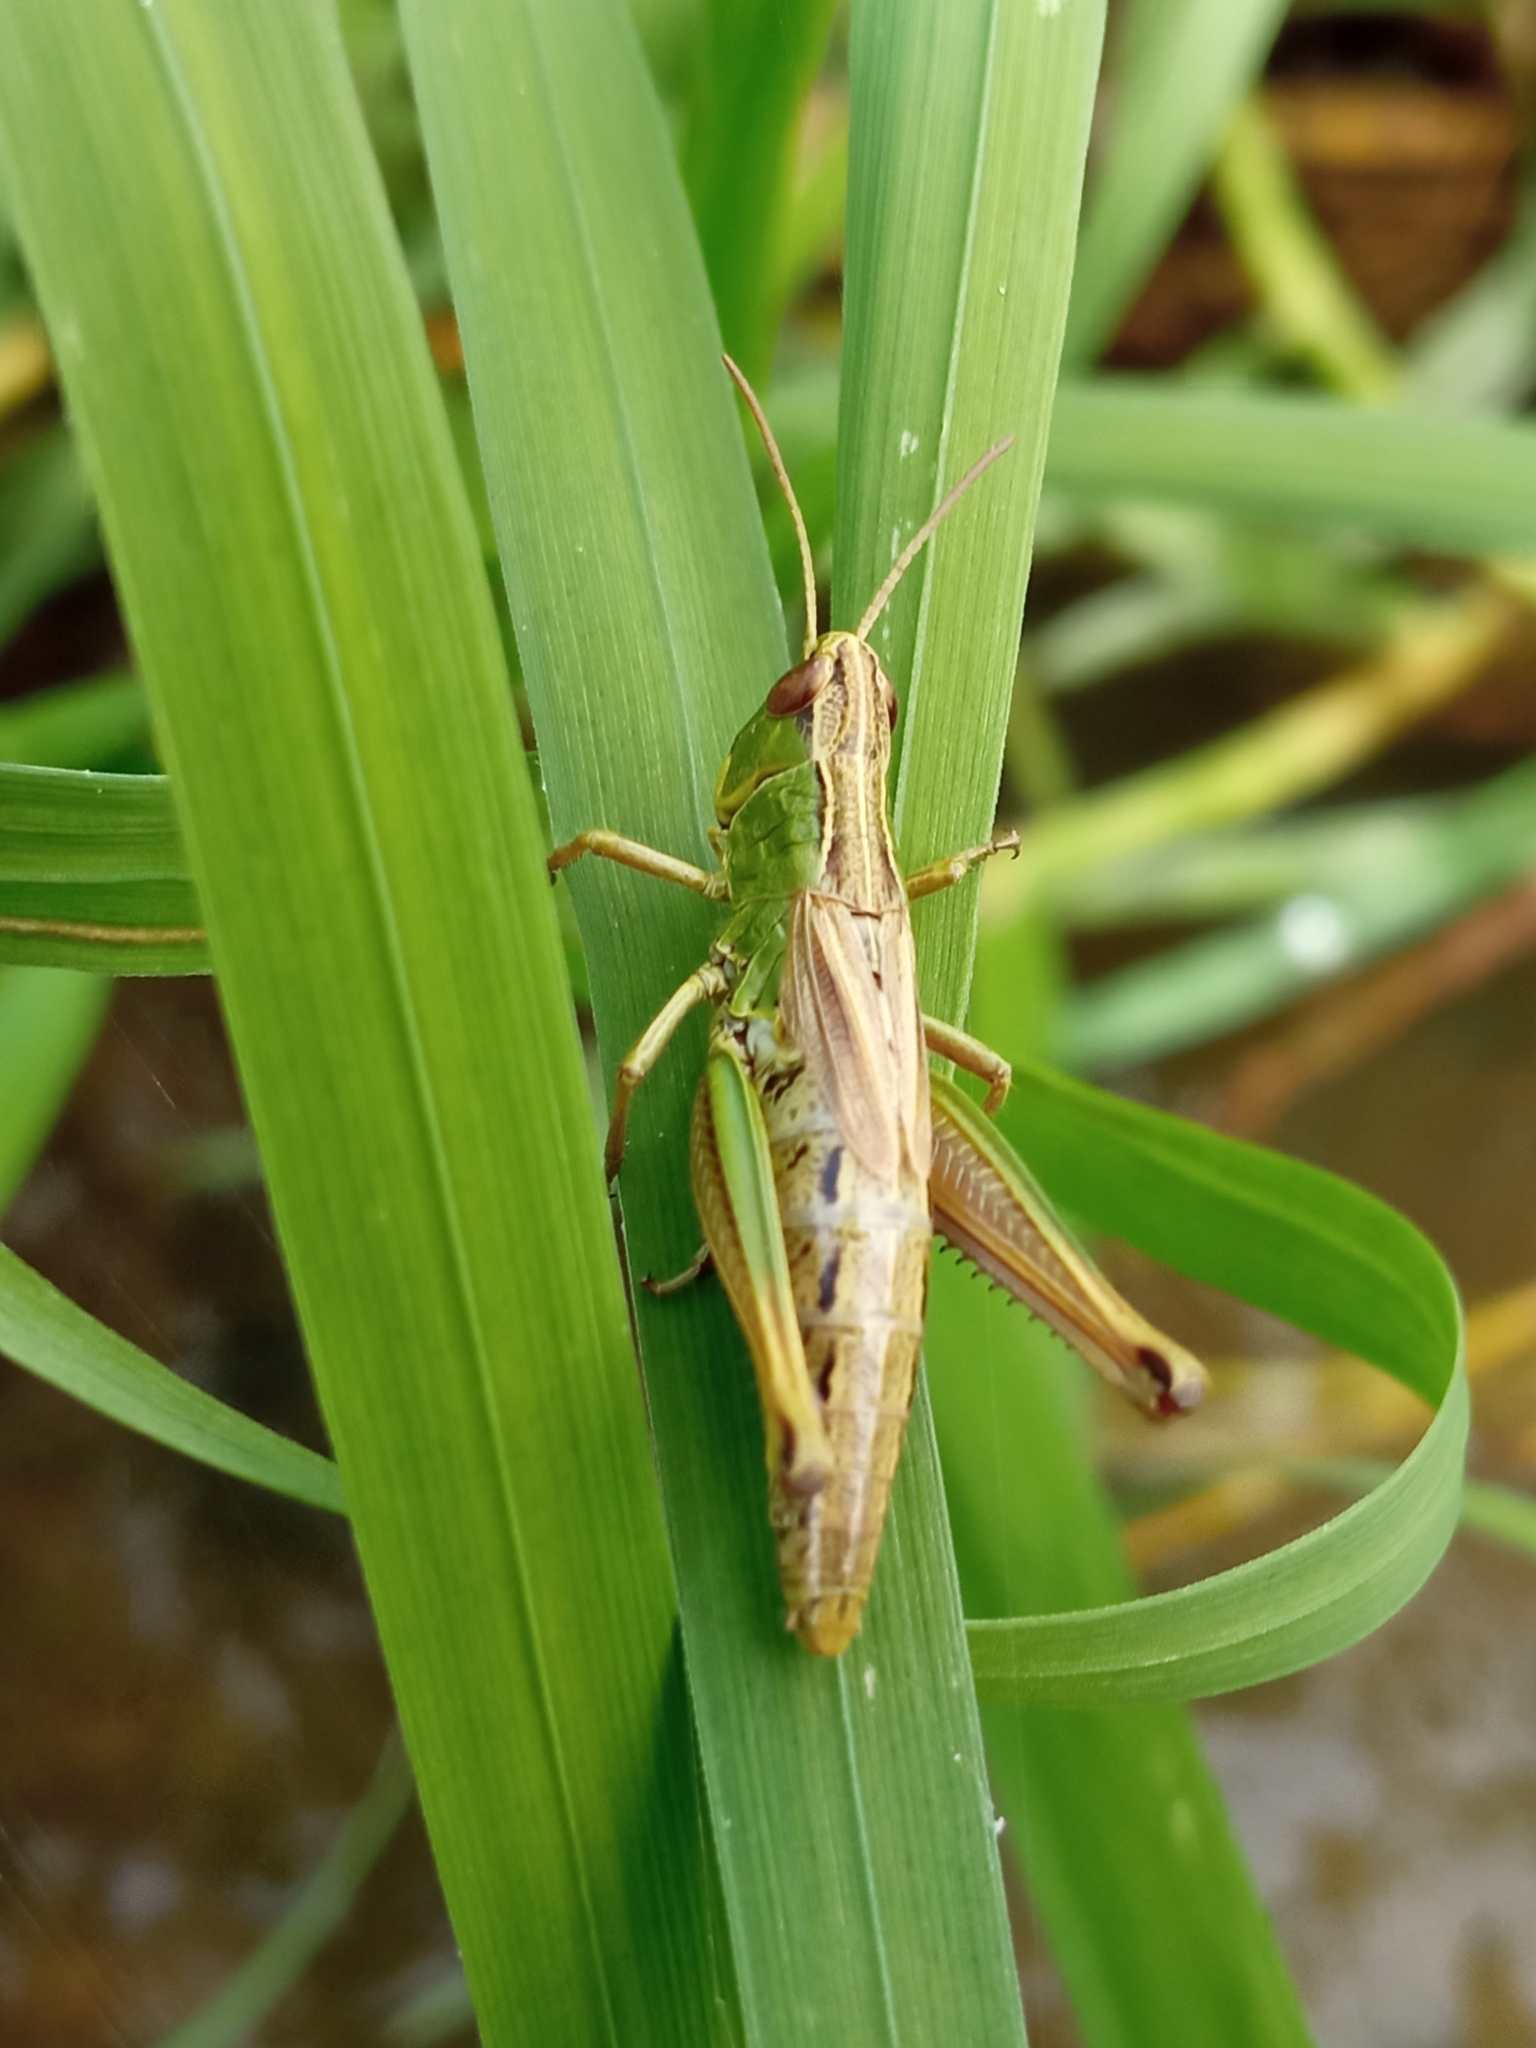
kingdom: Animalia
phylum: Arthropoda
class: Insecta
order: Orthoptera
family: Acrididae
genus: Pseudochorthippus
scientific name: Pseudochorthippus parallelus
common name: Meadow grasshopper
